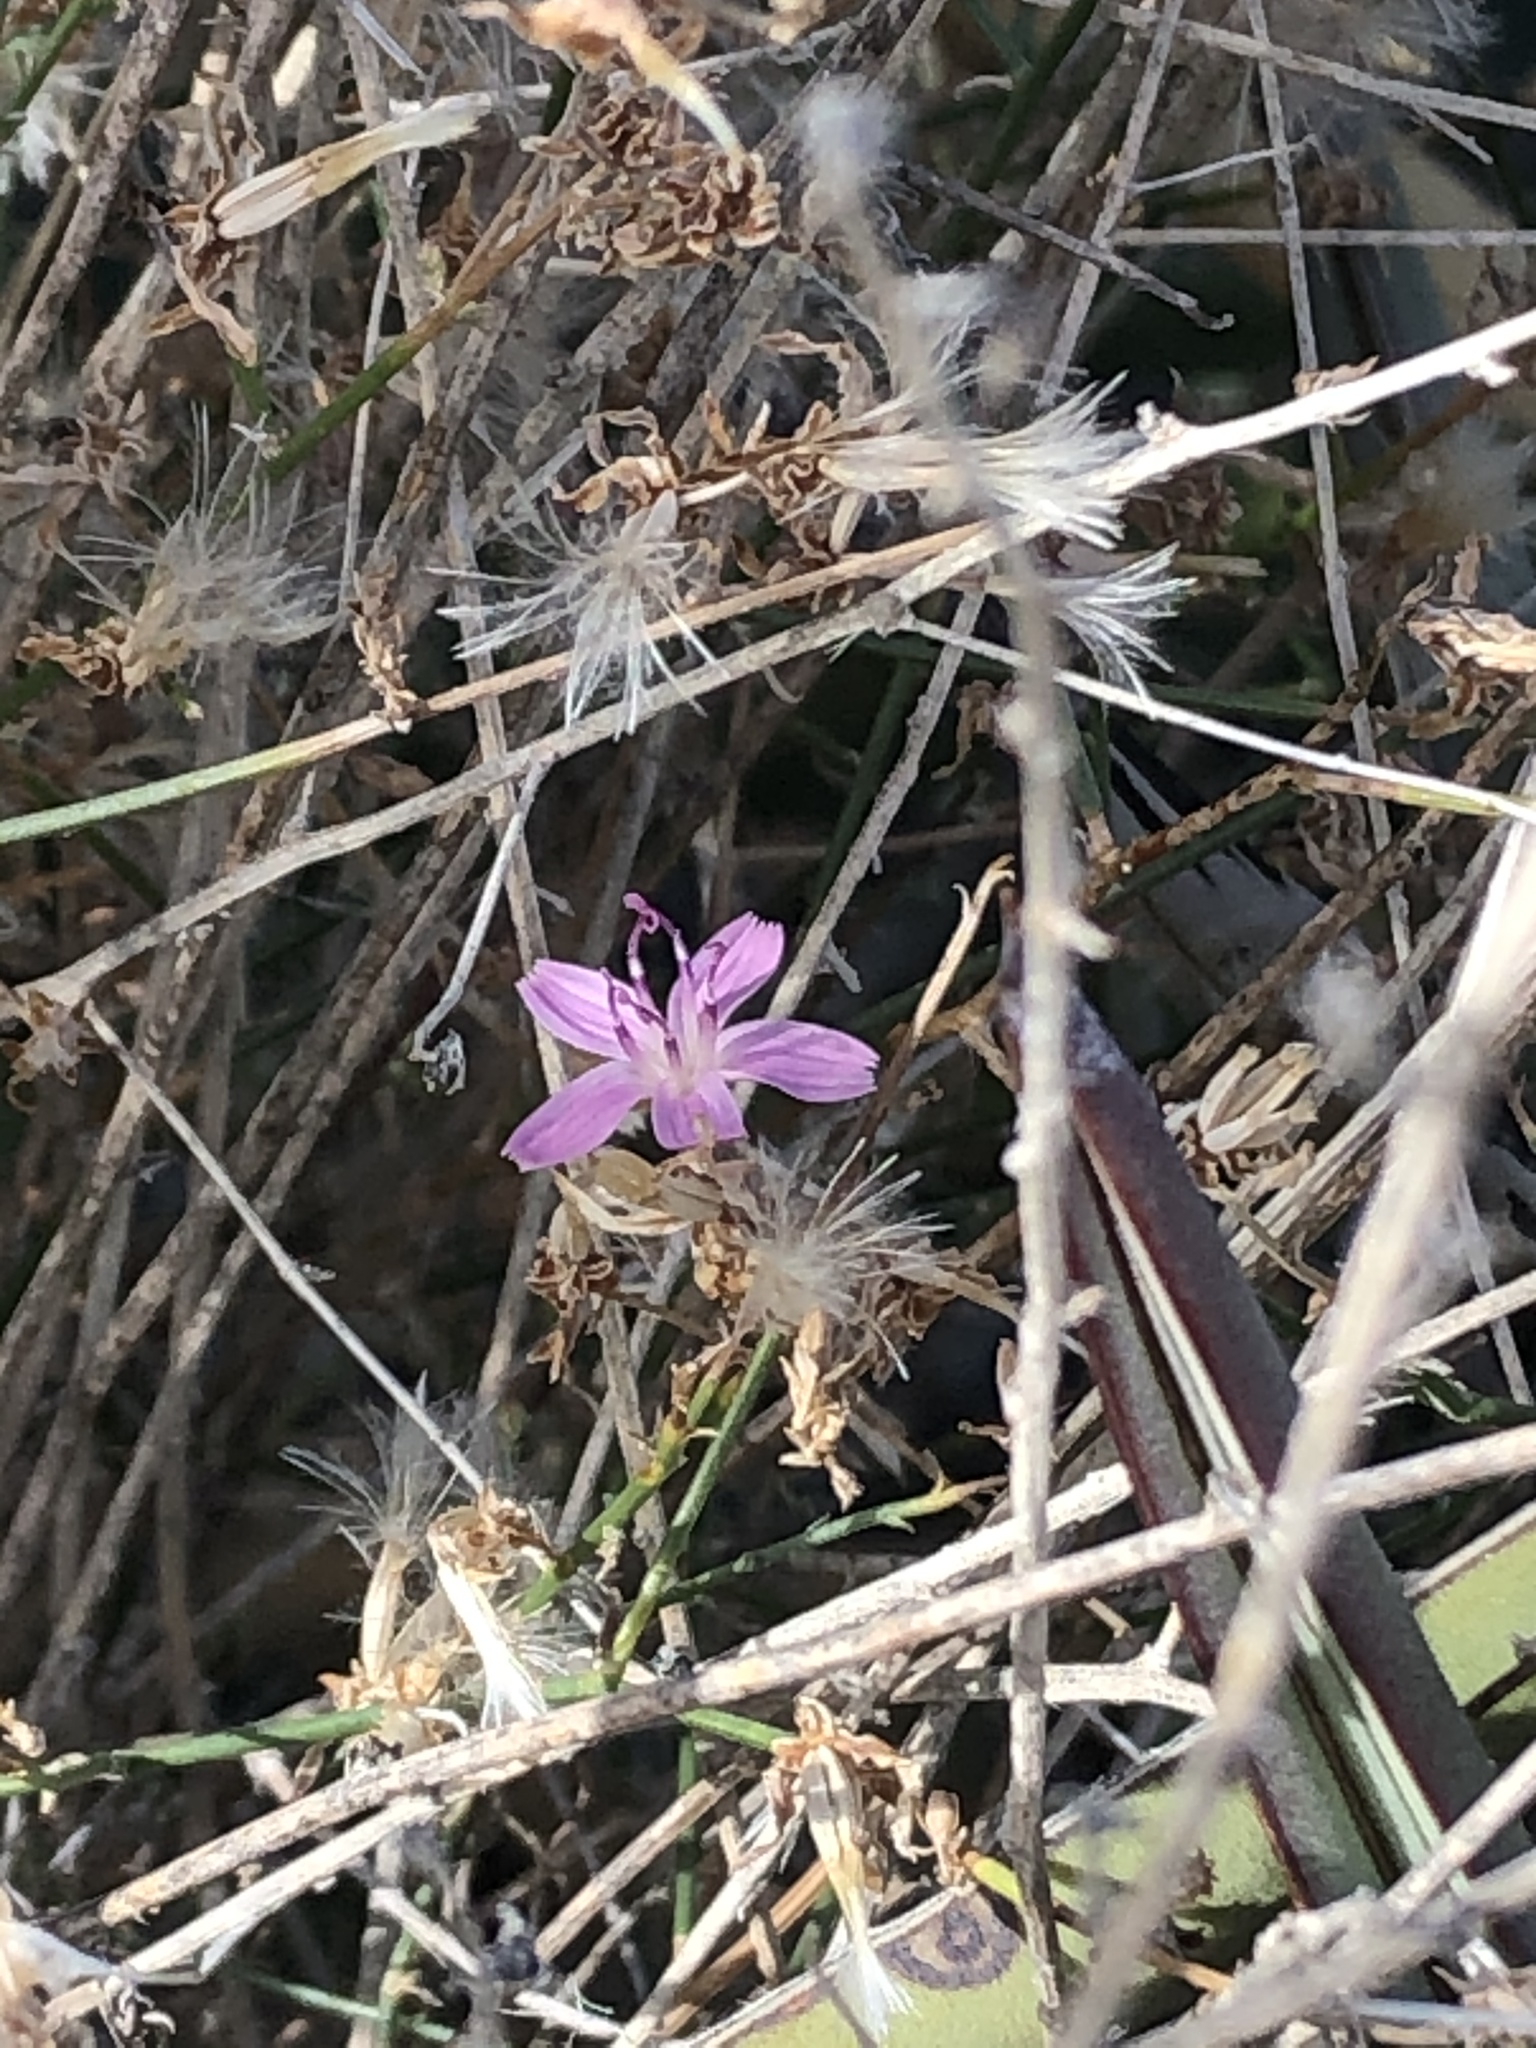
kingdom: Plantae
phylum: Tracheophyta
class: Magnoliopsida
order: Asterales
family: Asteraceae
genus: Stephanomeria
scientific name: Stephanomeria pauciflora
